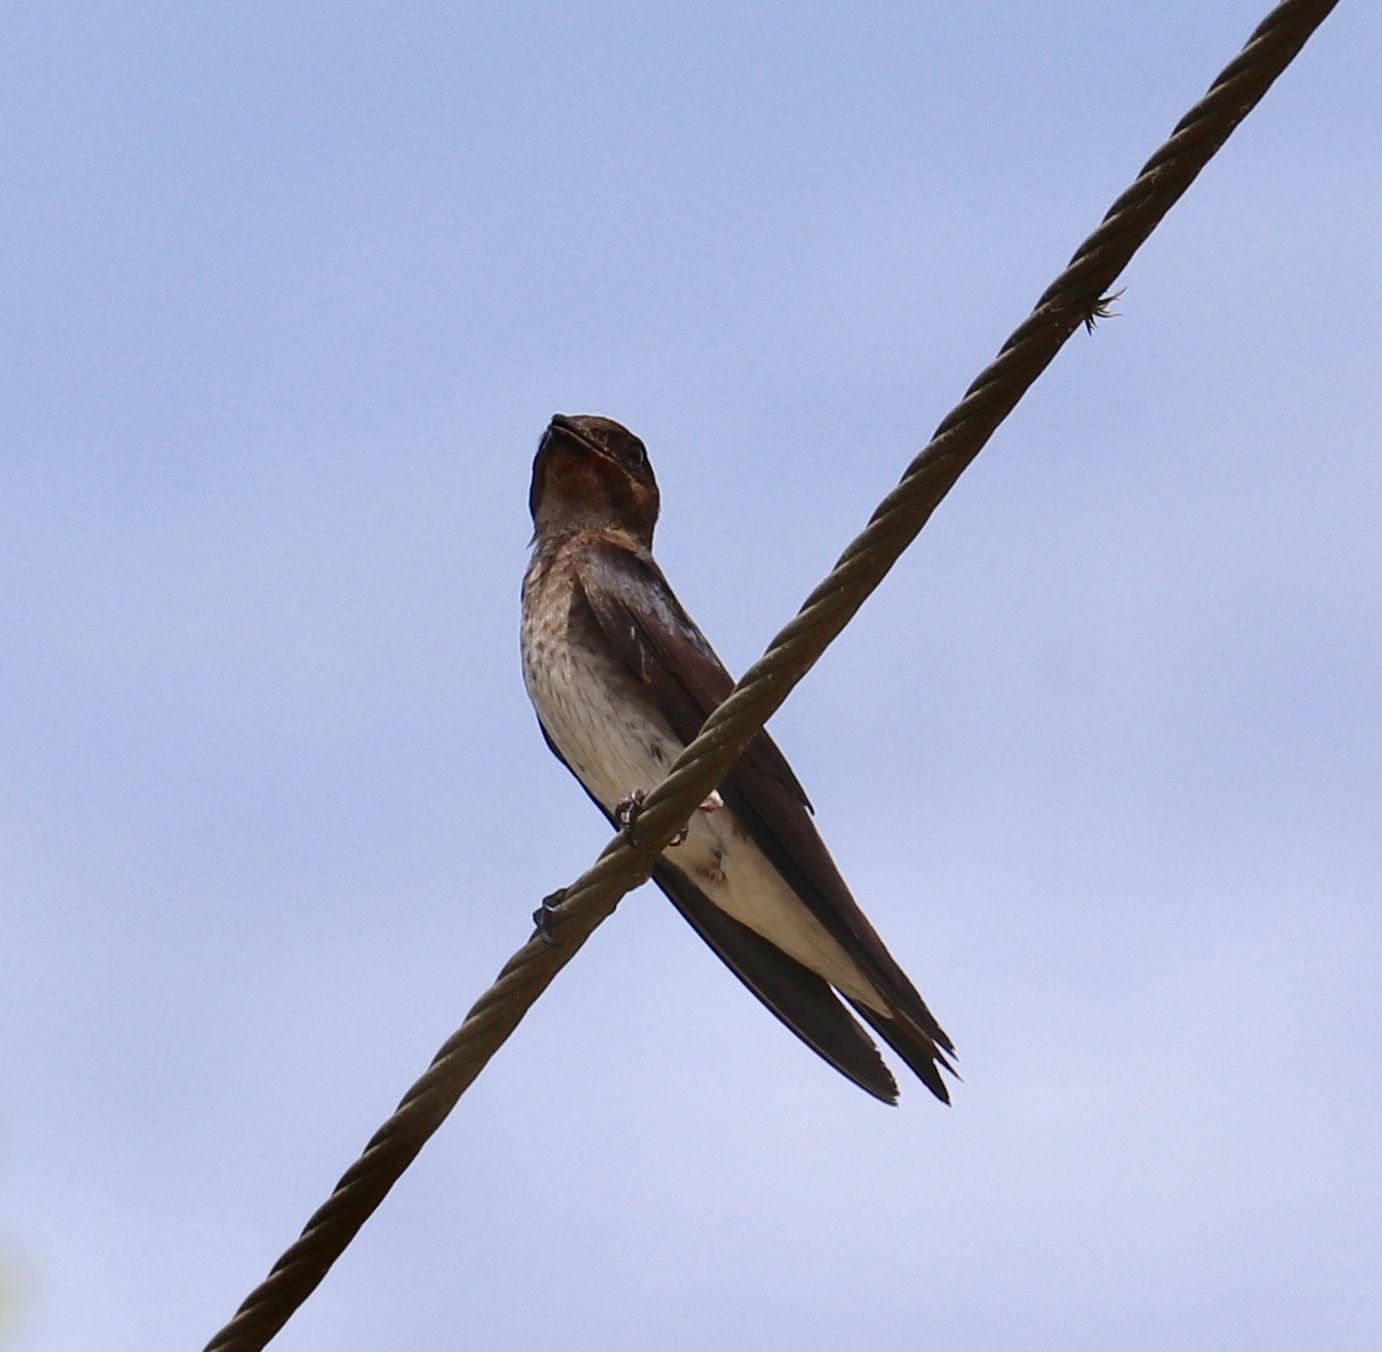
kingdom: Animalia
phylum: Chordata
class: Aves
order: Passeriformes
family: Hirundinidae
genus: Progne
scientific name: Progne chalybea
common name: Grey-breasted martin
